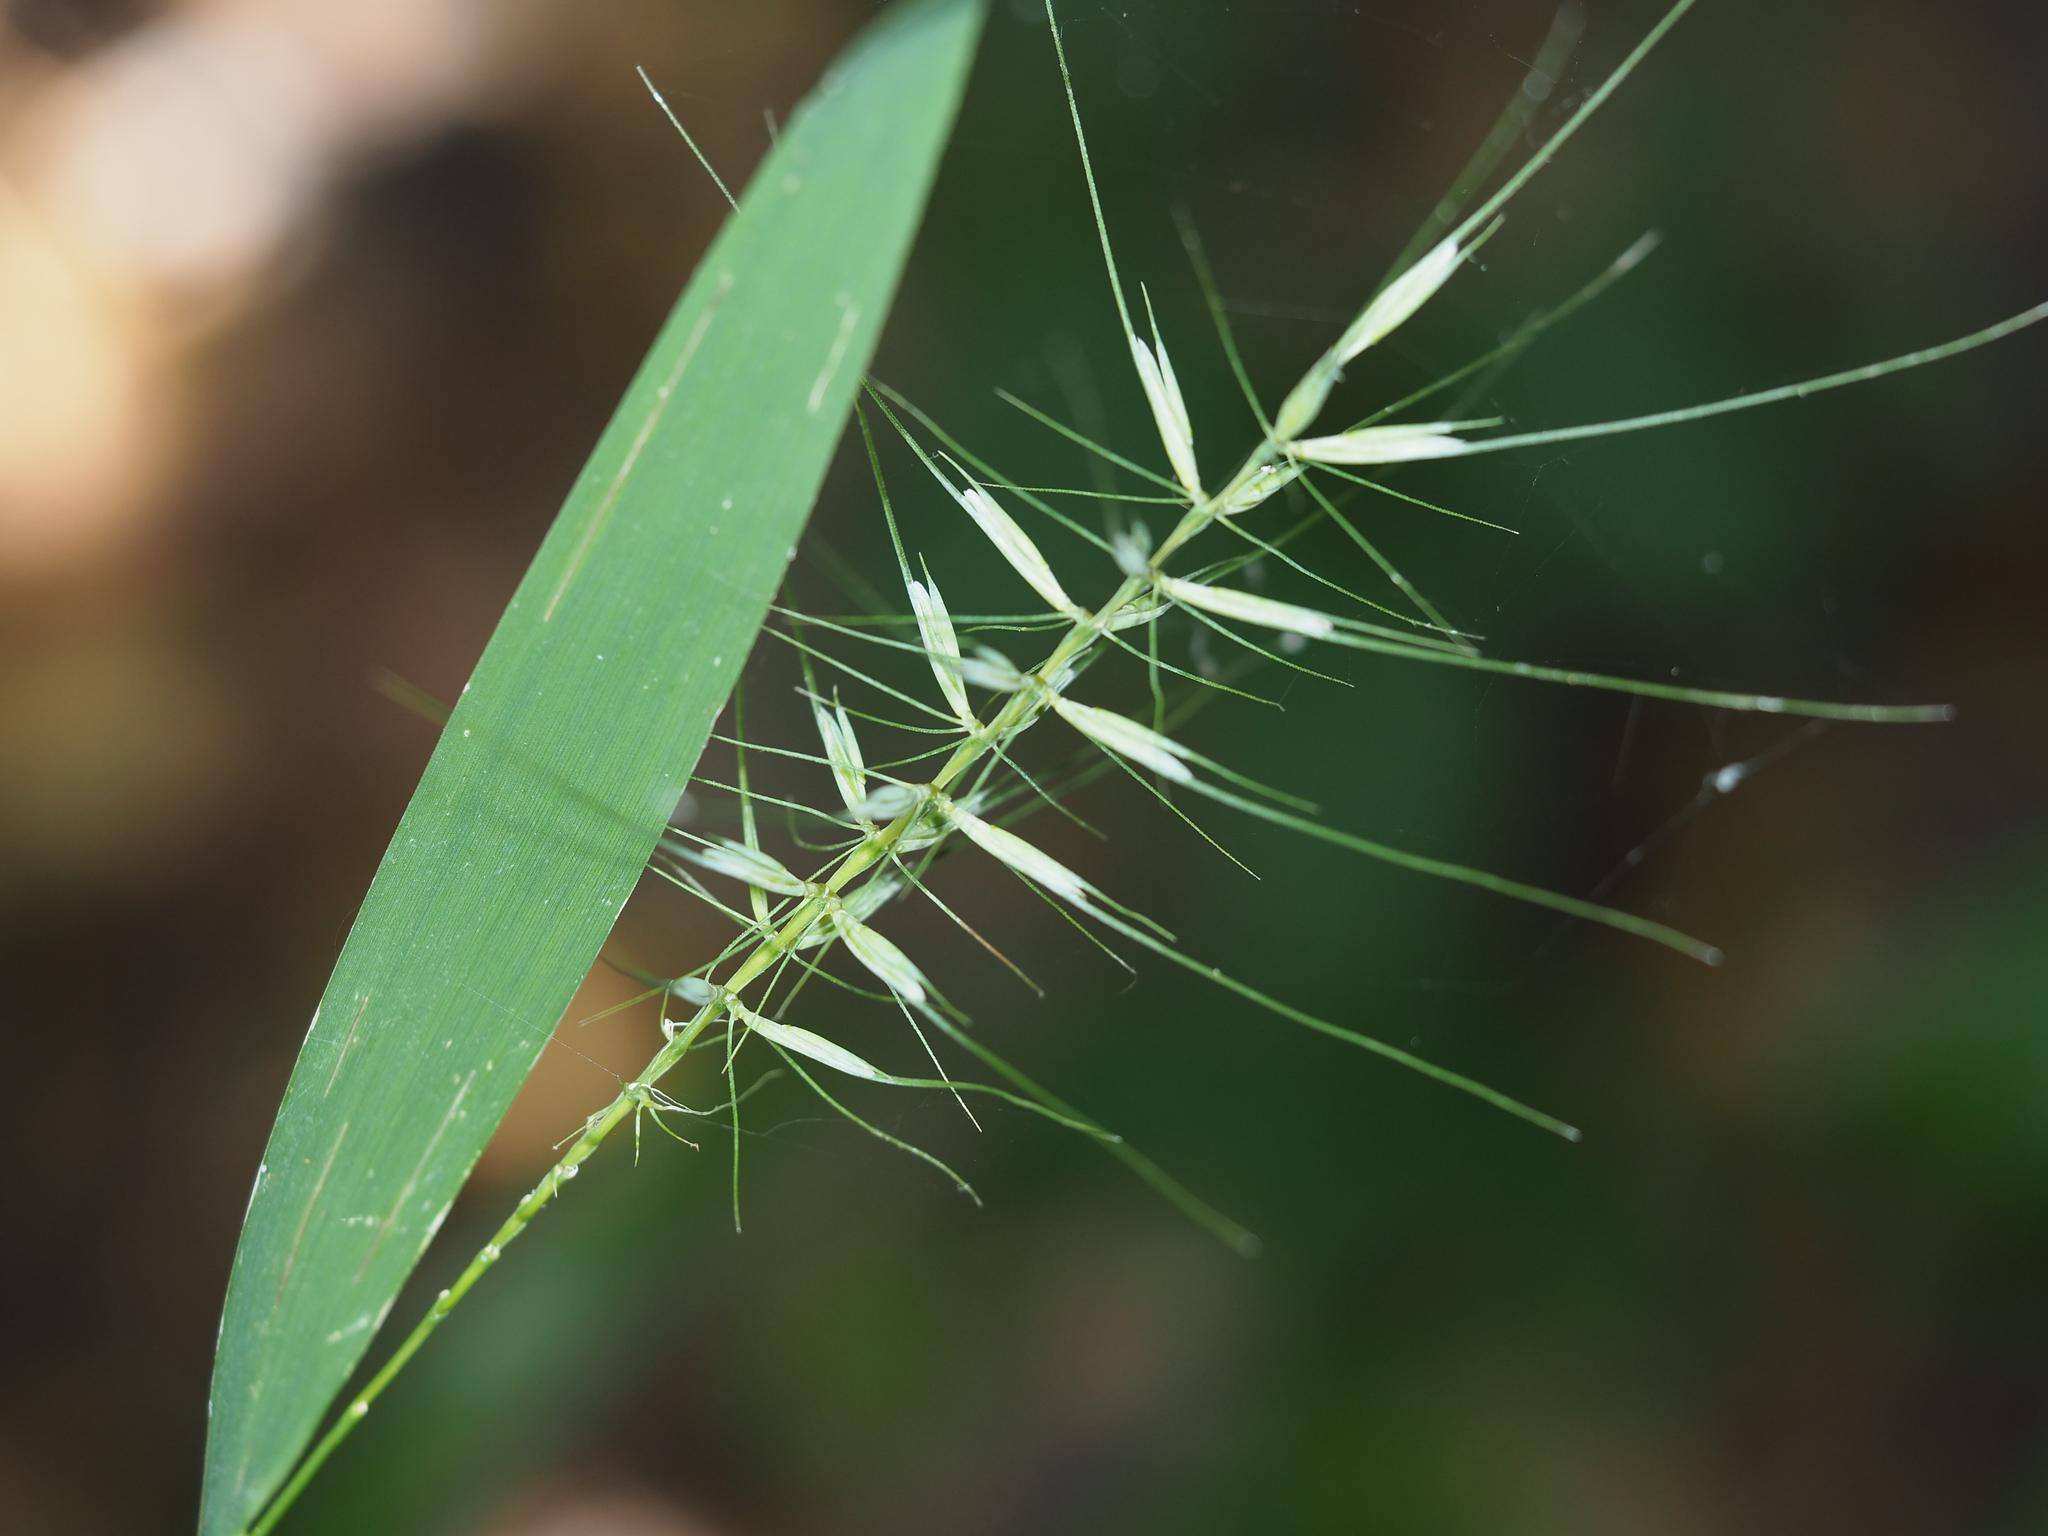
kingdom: Plantae
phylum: Tracheophyta
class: Liliopsida
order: Poales
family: Poaceae
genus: Elymus
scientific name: Elymus hystrix
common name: Bottlebrush grass
